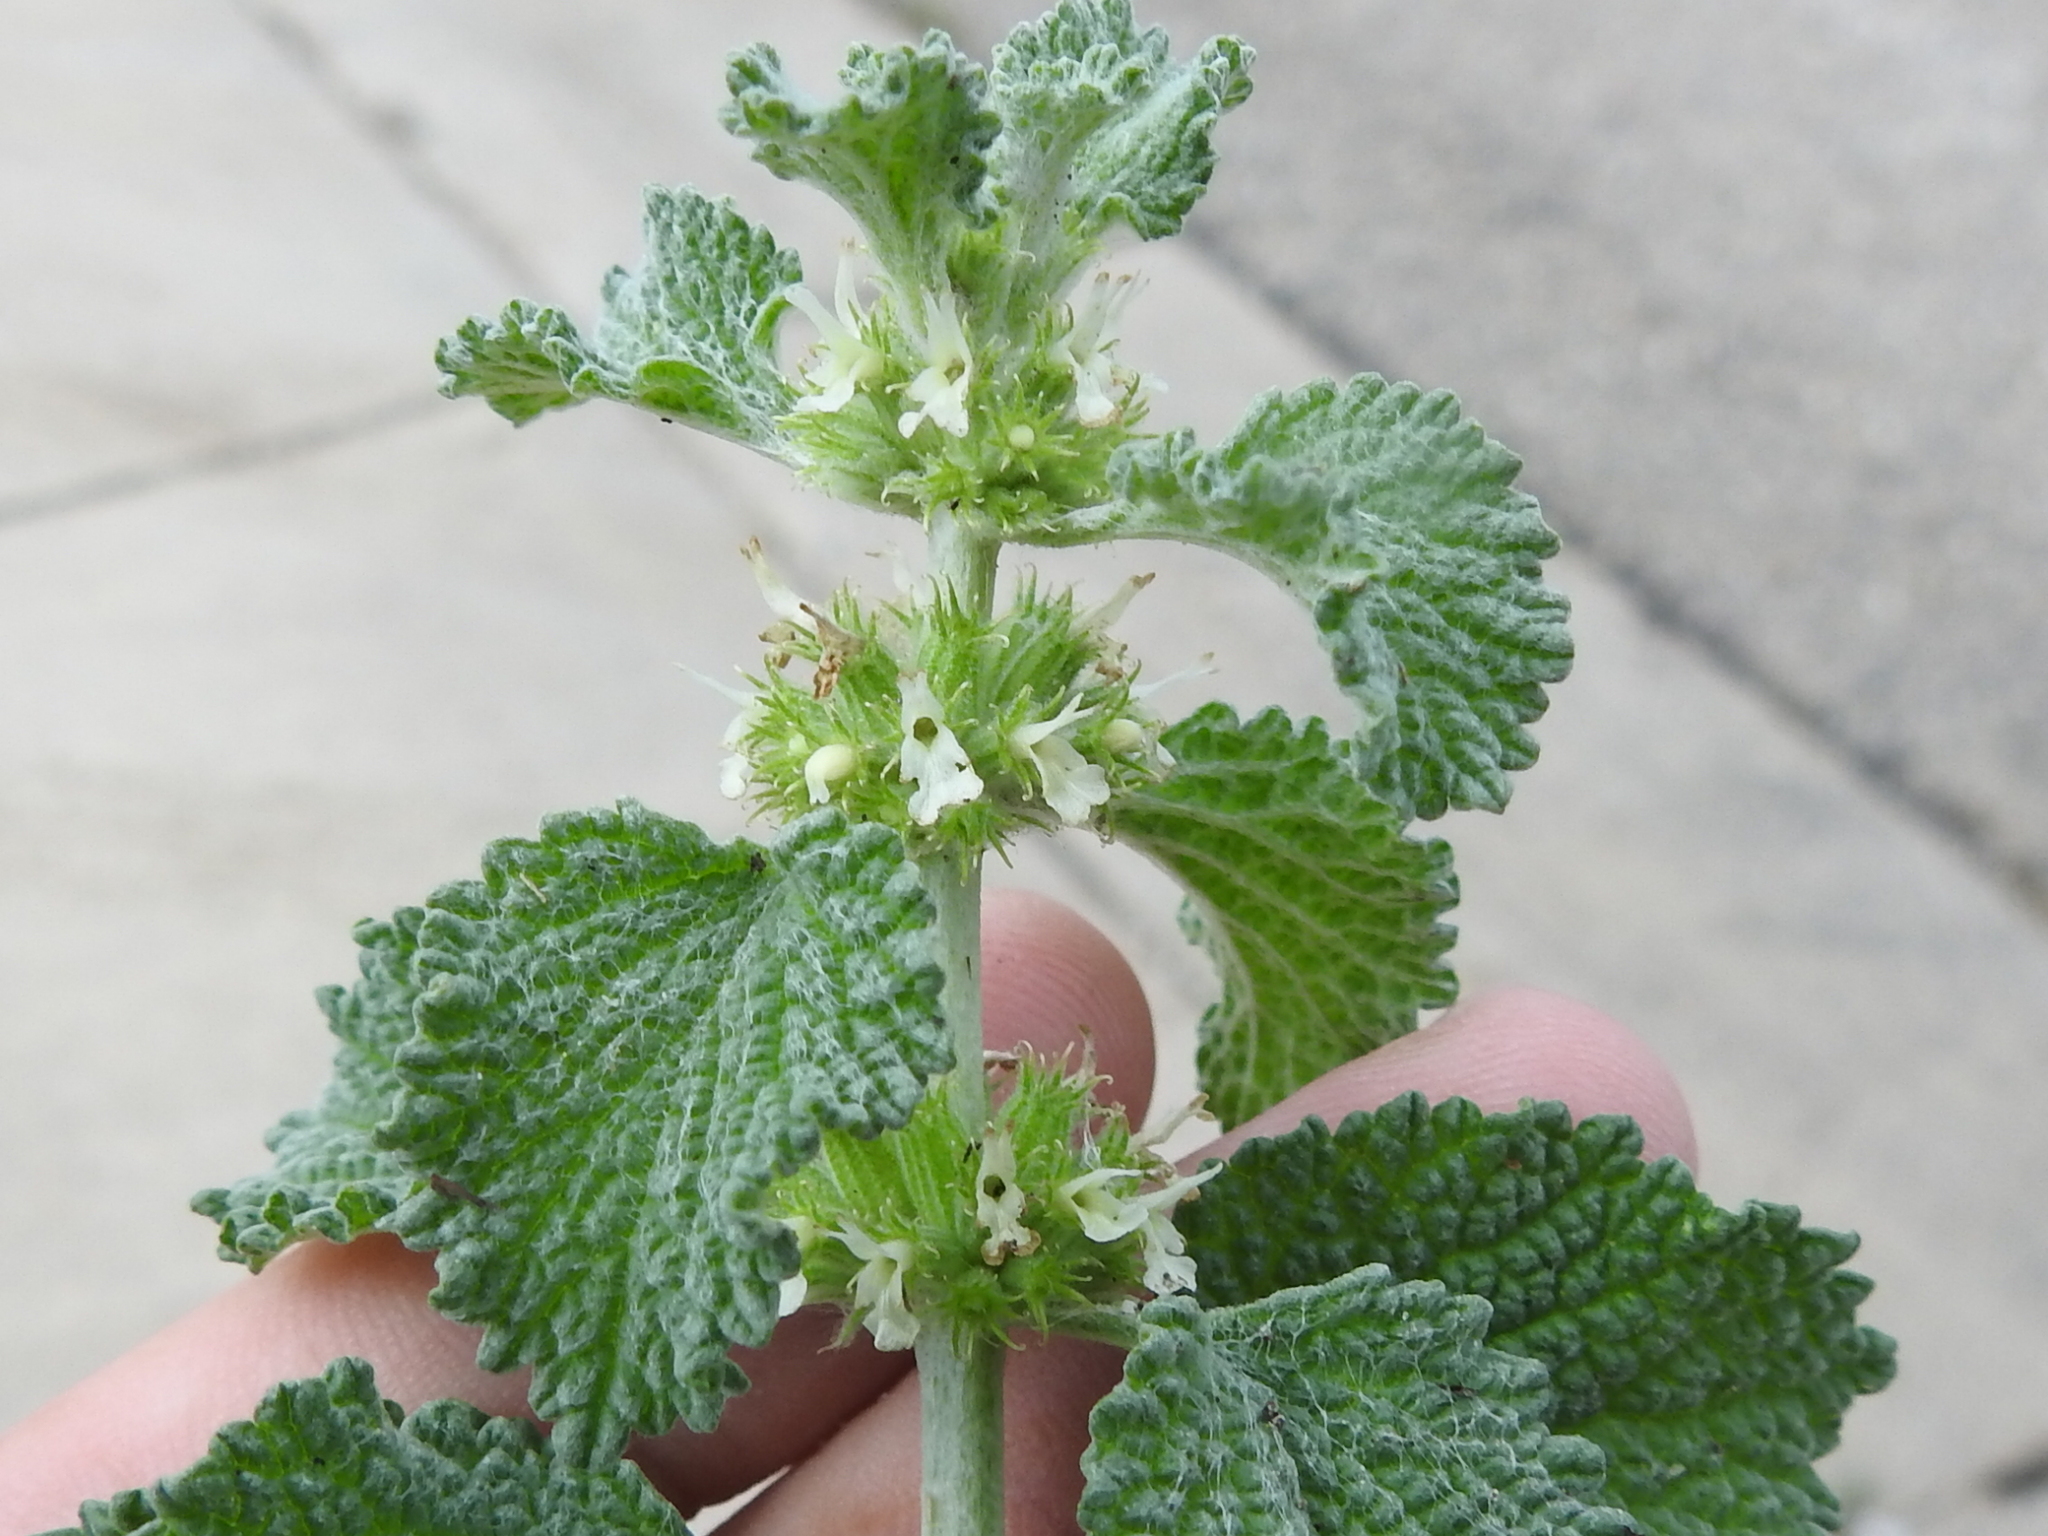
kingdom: Plantae
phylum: Tracheophyta
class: Magnoliopsida
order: Lamiales
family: Lamiaceae
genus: Marrubium
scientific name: Marrubium vulgare
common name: Horehound
